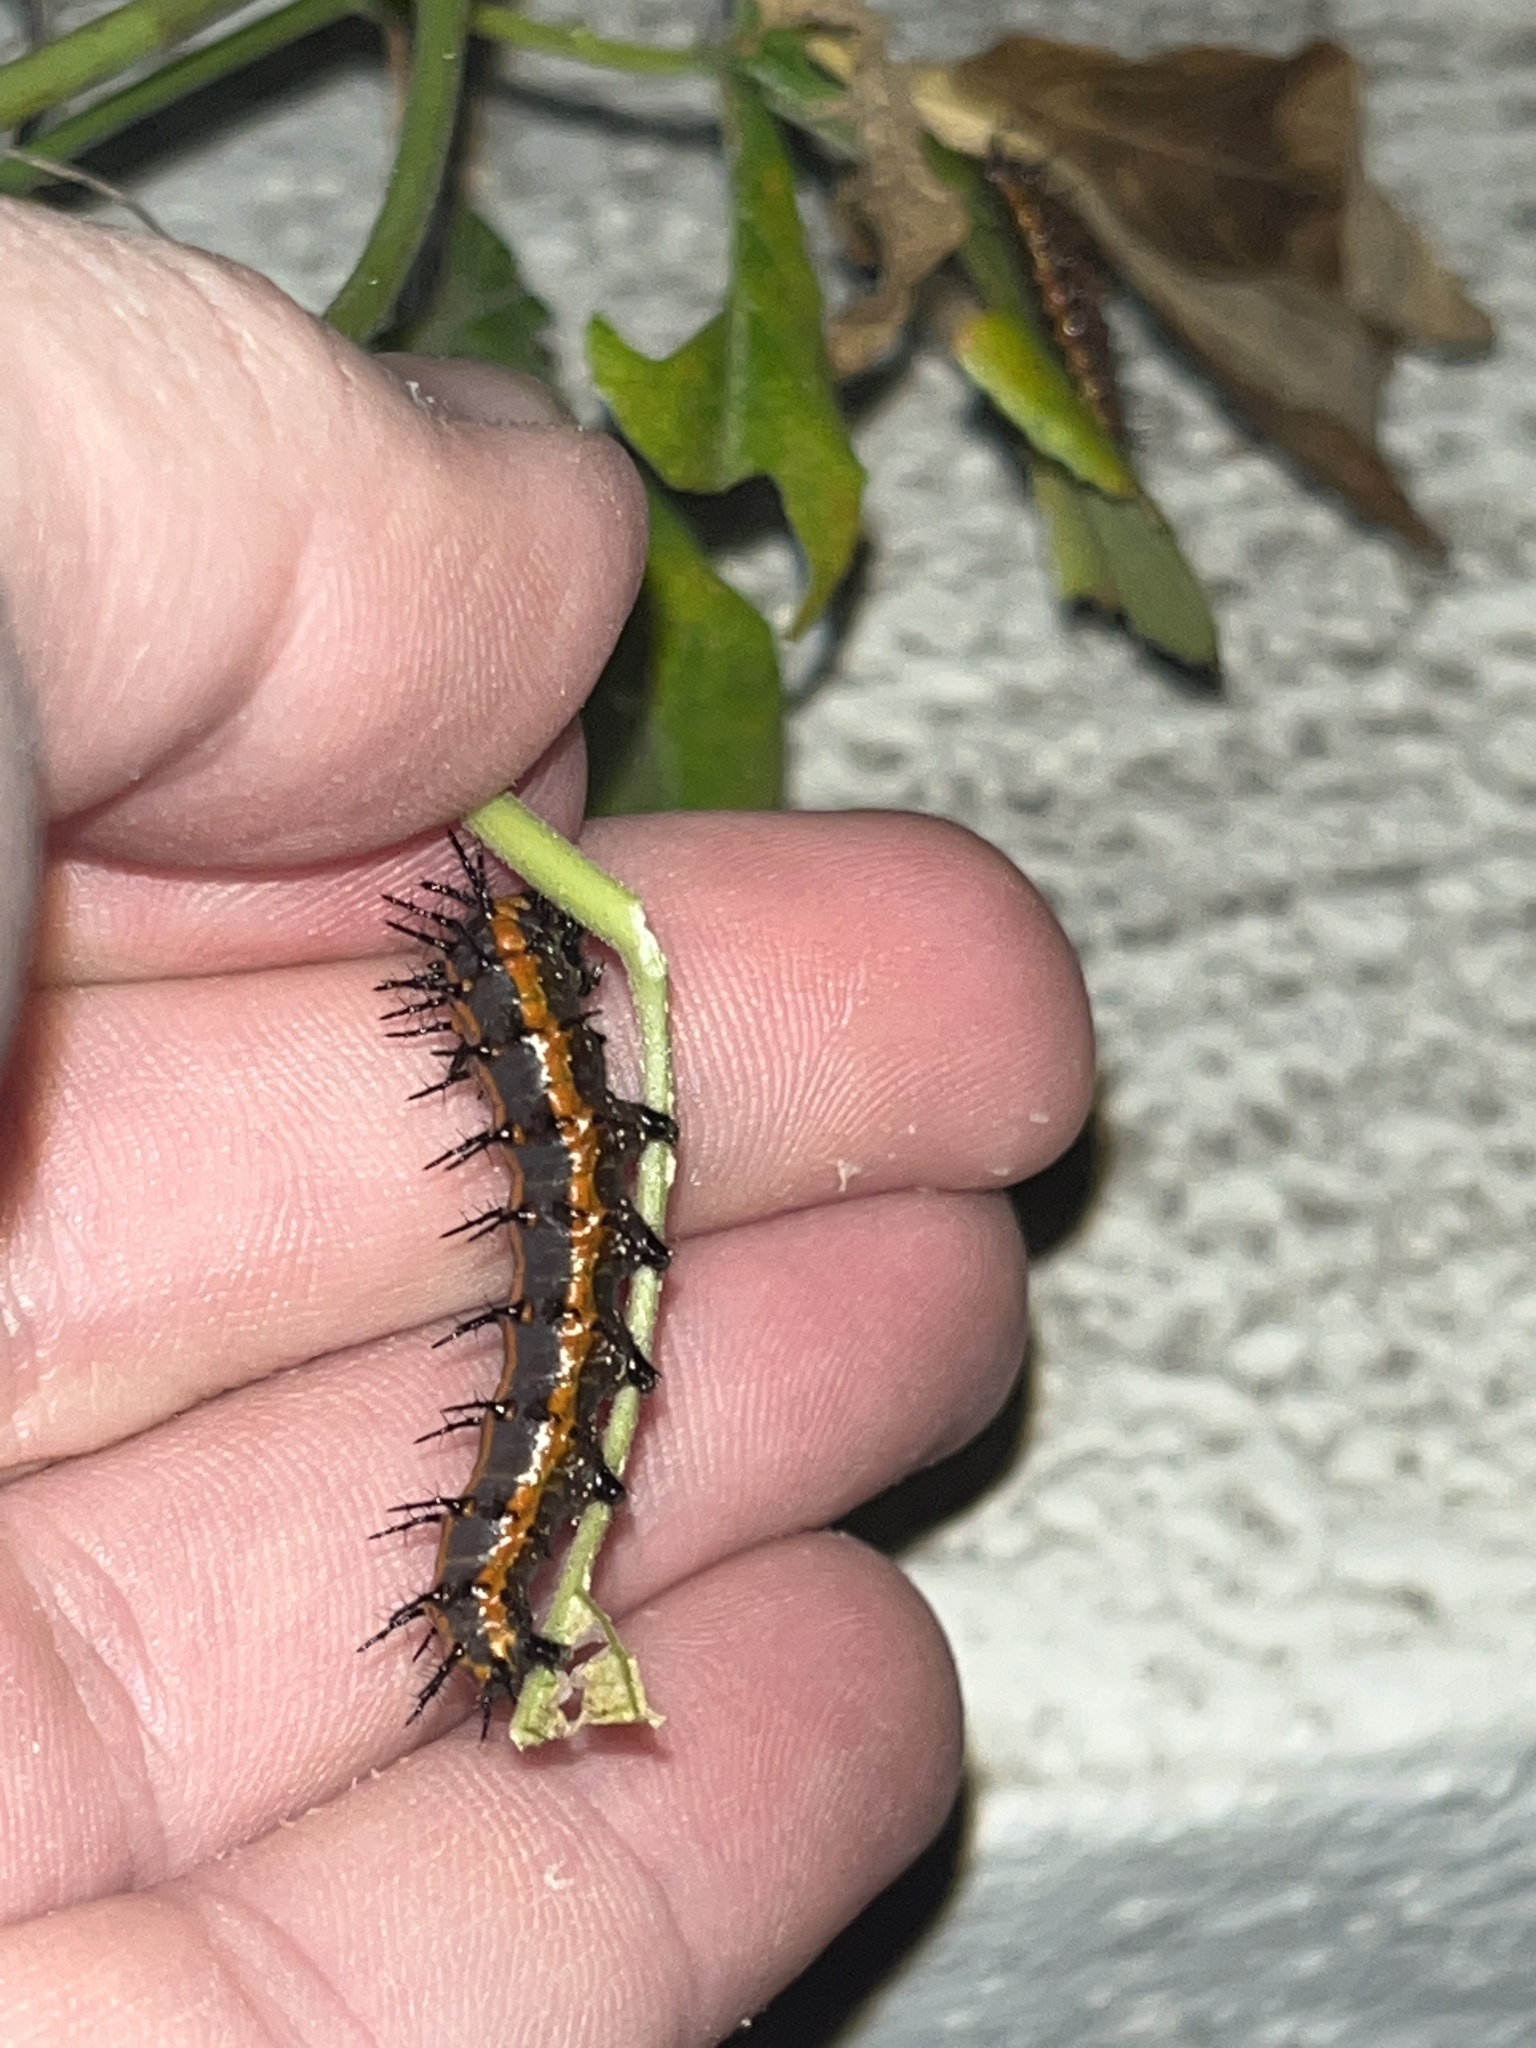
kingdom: Animalia
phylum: Arthropoda
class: Insecta
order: Lepidoptera
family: Nymphalidae
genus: Dione
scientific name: Dione vanillae
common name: Gulf fritillary
